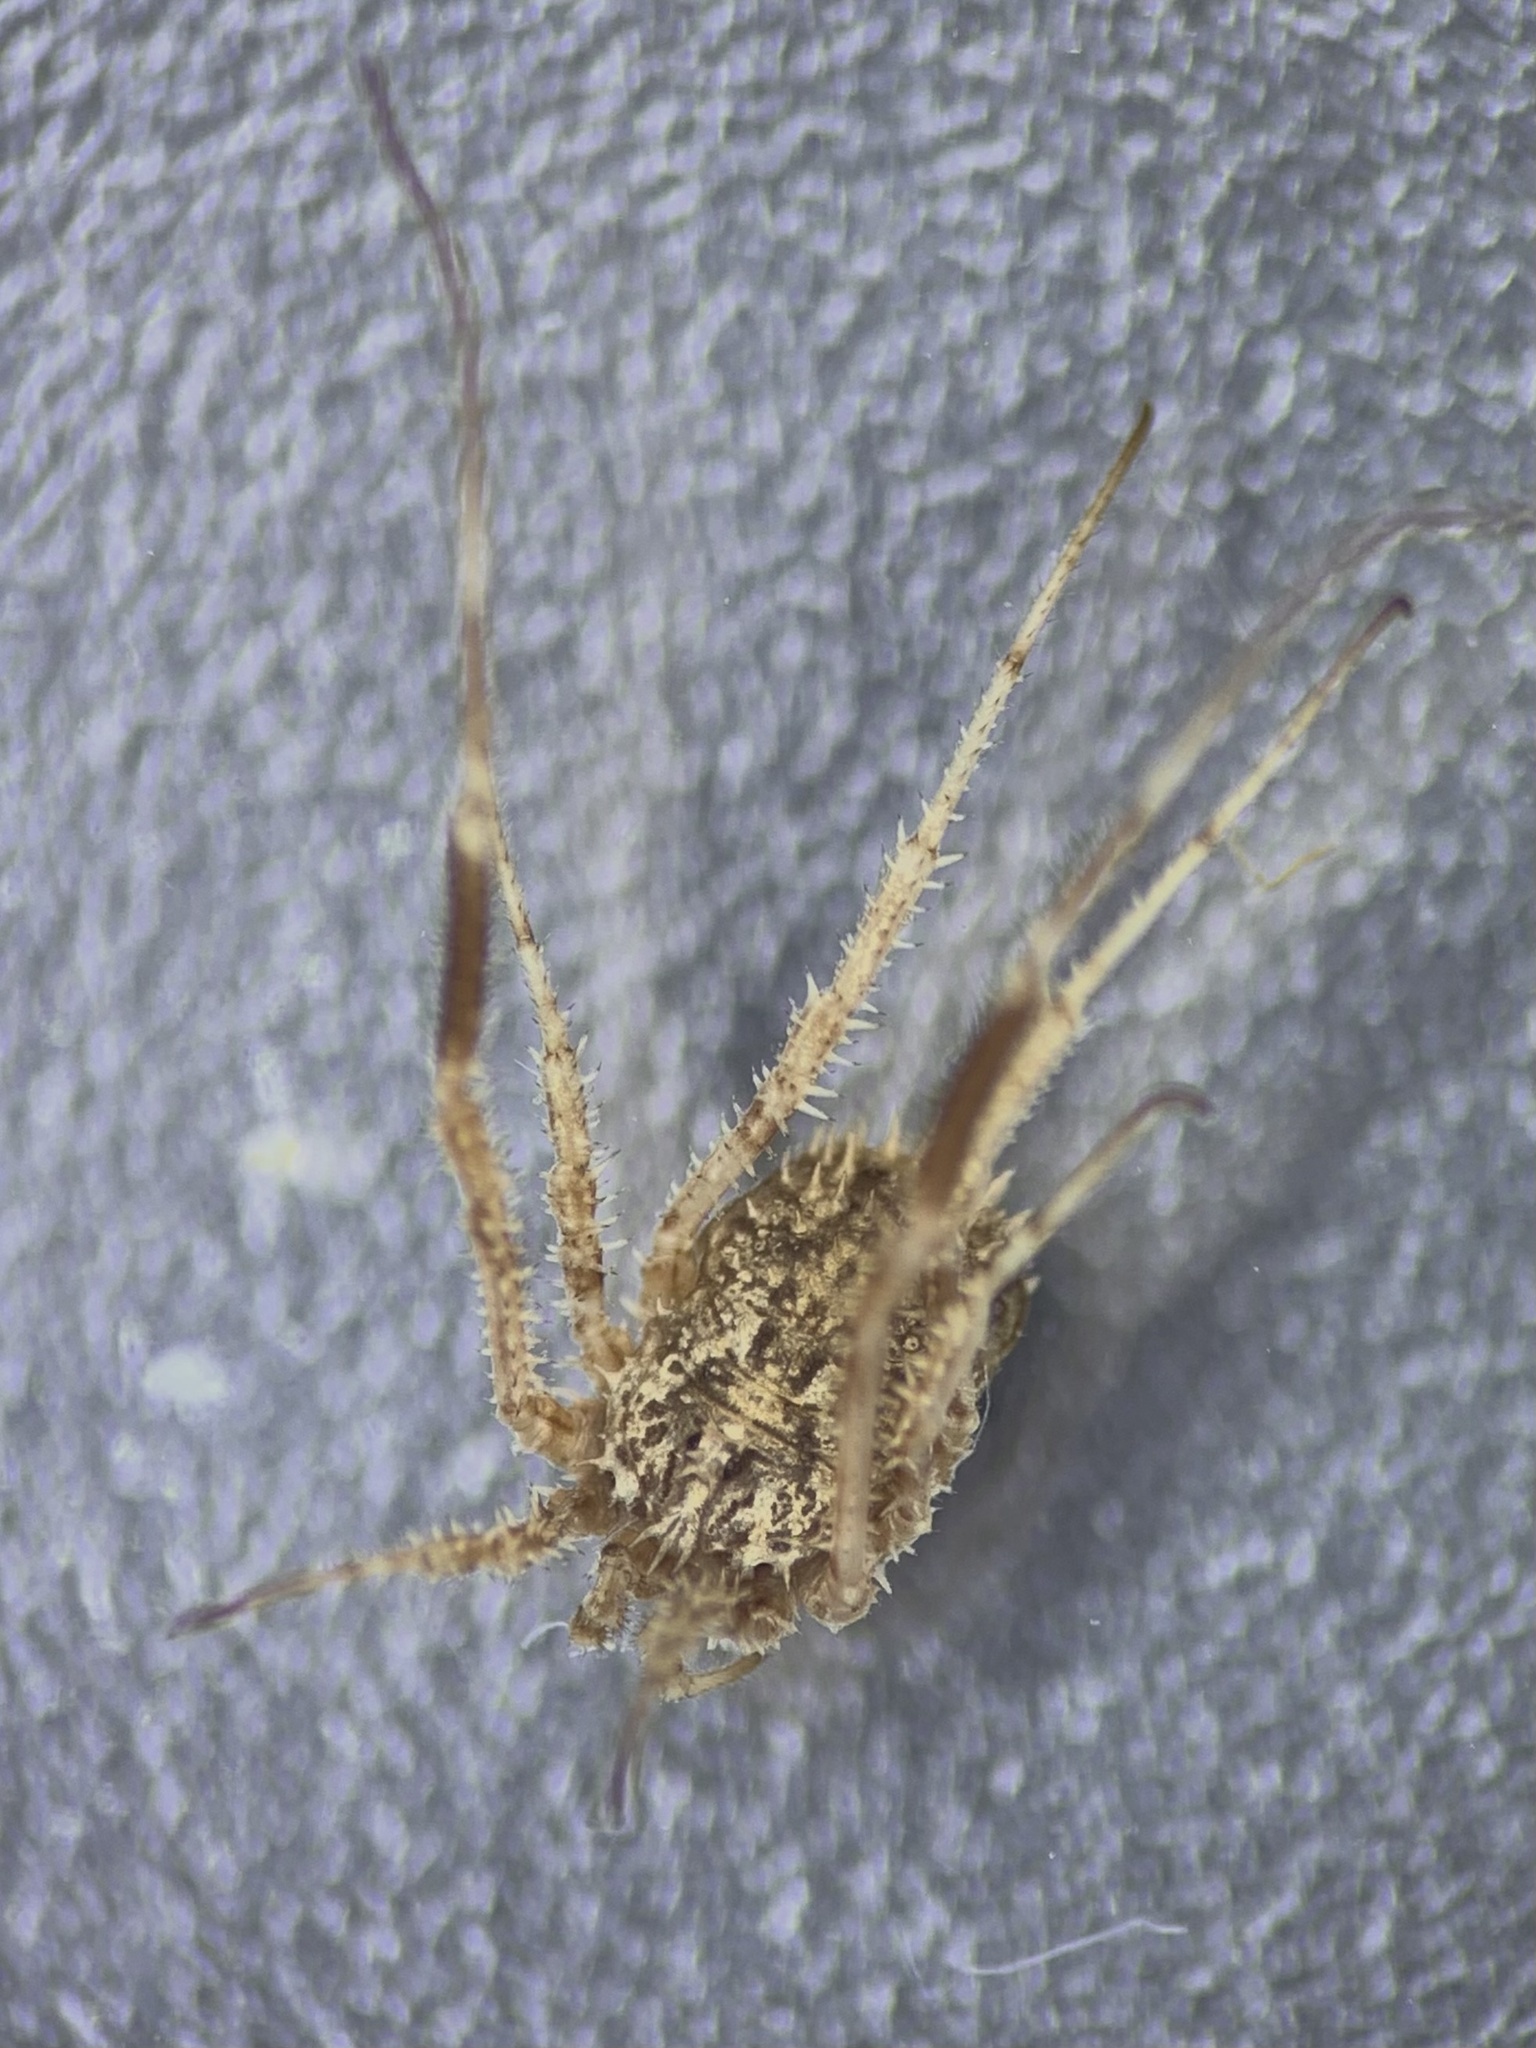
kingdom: Animalia
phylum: Arthropoda
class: Arachnida
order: Opiliones
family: Phalangiidae
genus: Lacinius
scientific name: Lacinius horridus
